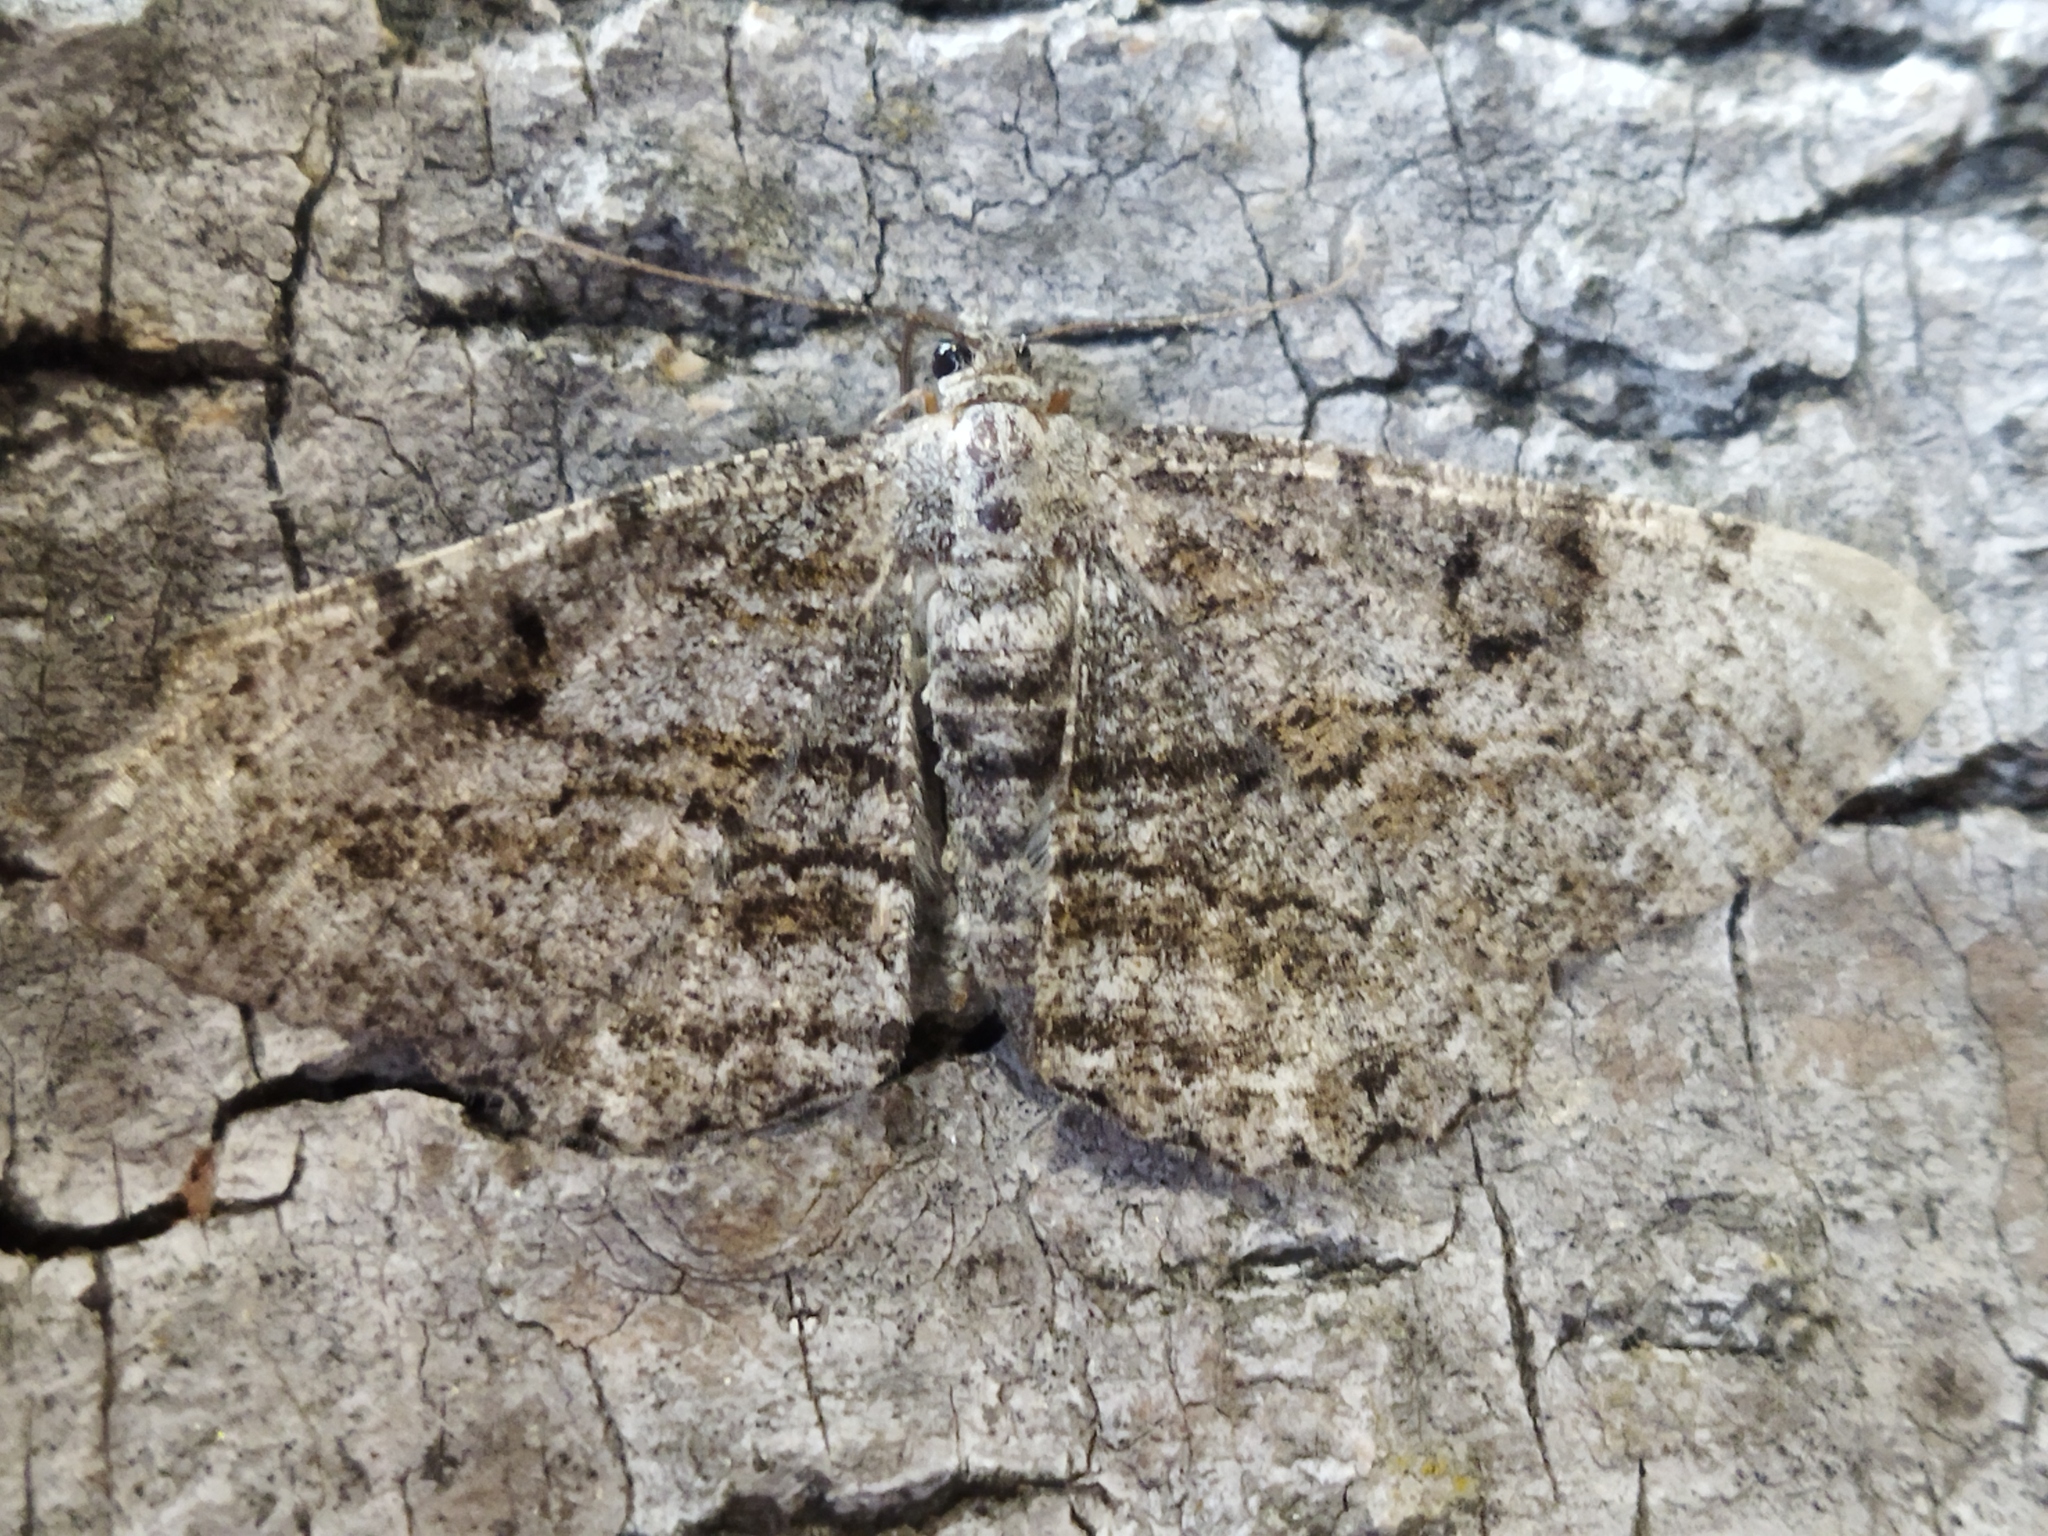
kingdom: Animalia
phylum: Arthropoda
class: Insecta
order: Lepidoptera
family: Geometridae
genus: Peribatodes
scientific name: Peribatodes rhomboidaria
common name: Willow beauty
